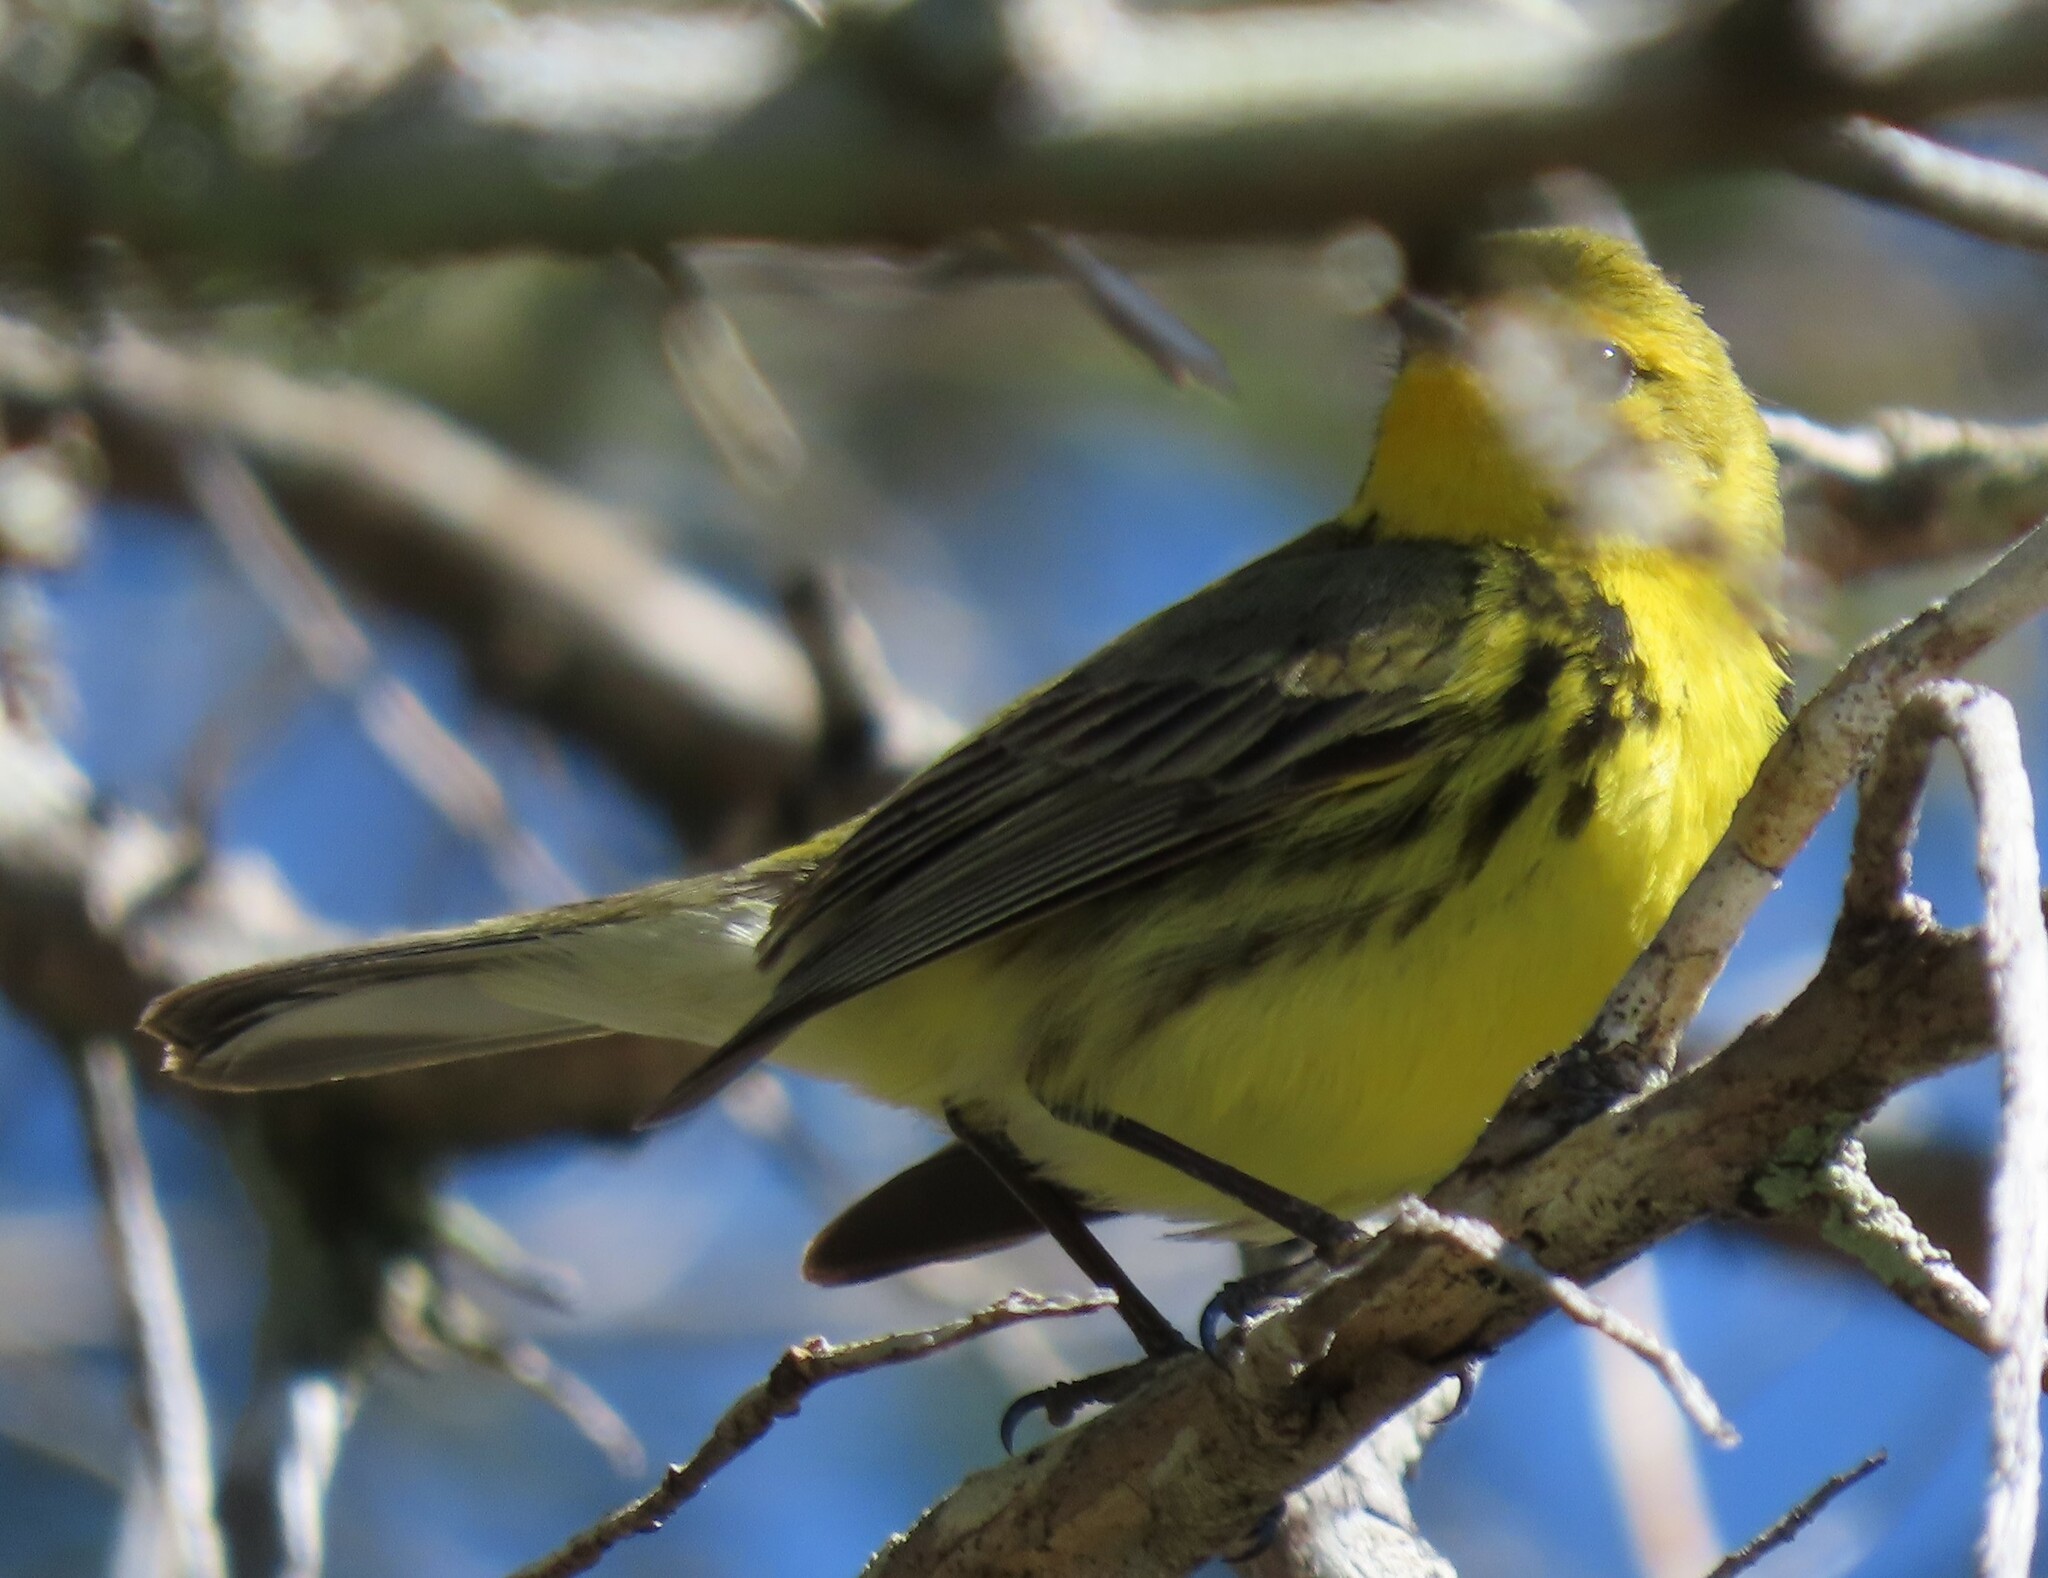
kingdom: Animalia
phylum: Chordata
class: Aves
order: Passeriformes
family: Parulidae
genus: Setophaga
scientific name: Setophaga discolor
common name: Prairie warbler
